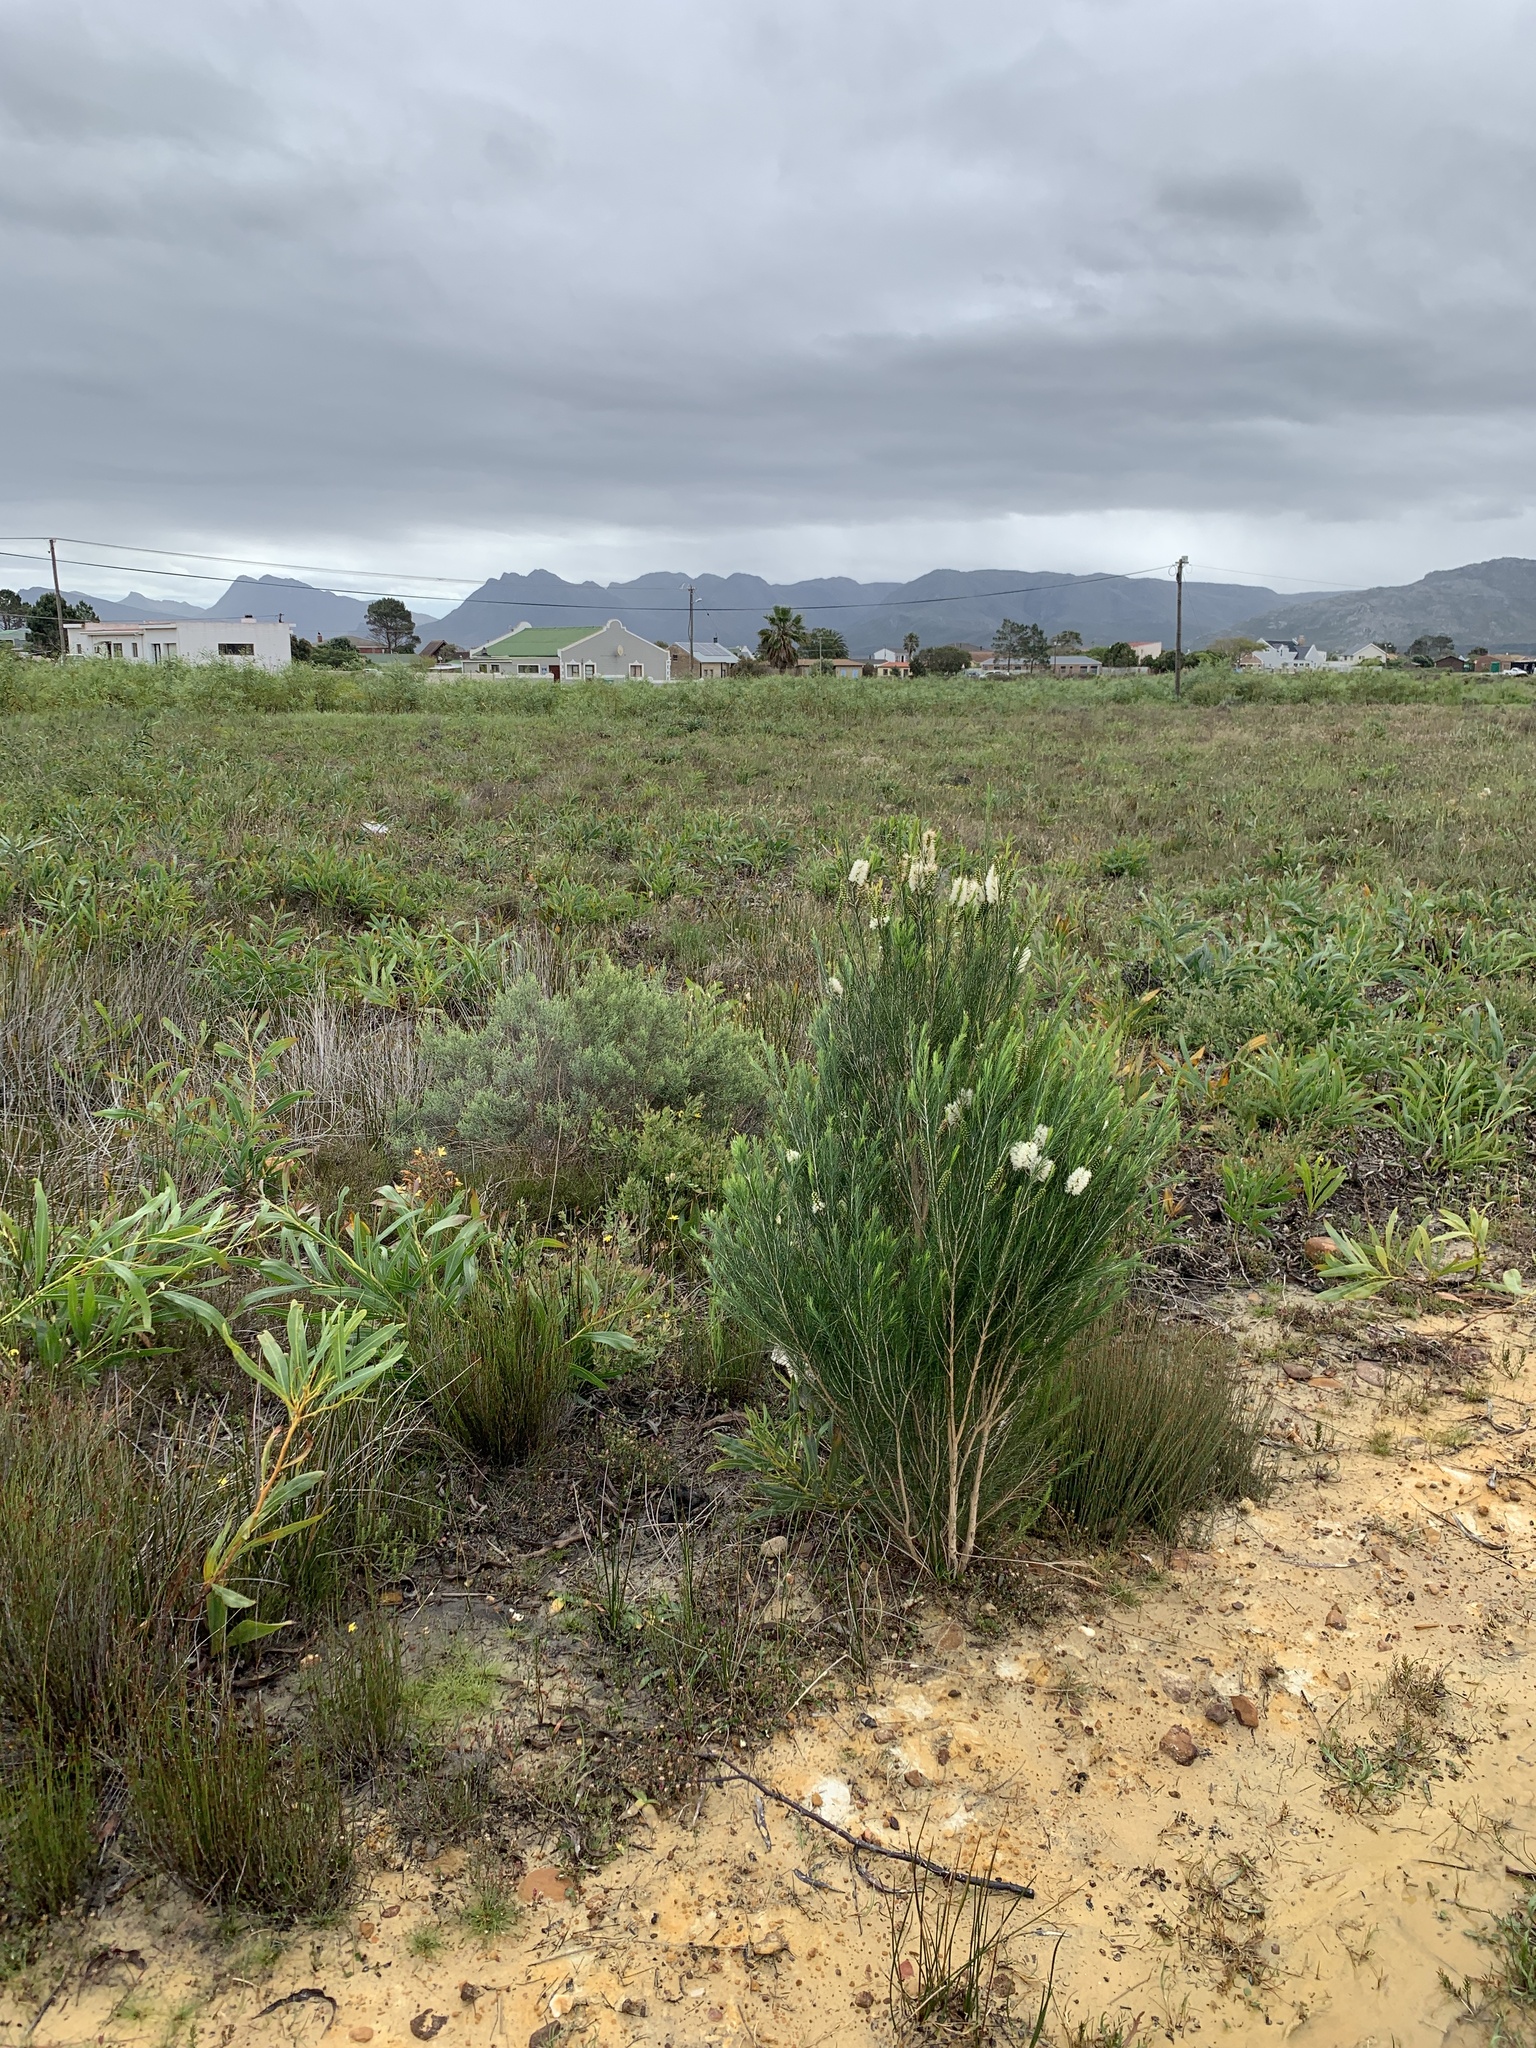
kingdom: Plantae
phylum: Tracheophyta
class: Magnoliopsida
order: Myrtales
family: Myrtaceae
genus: Melaleuca
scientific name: Melaleuca armillaris
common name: Bracelet honey myrtle
